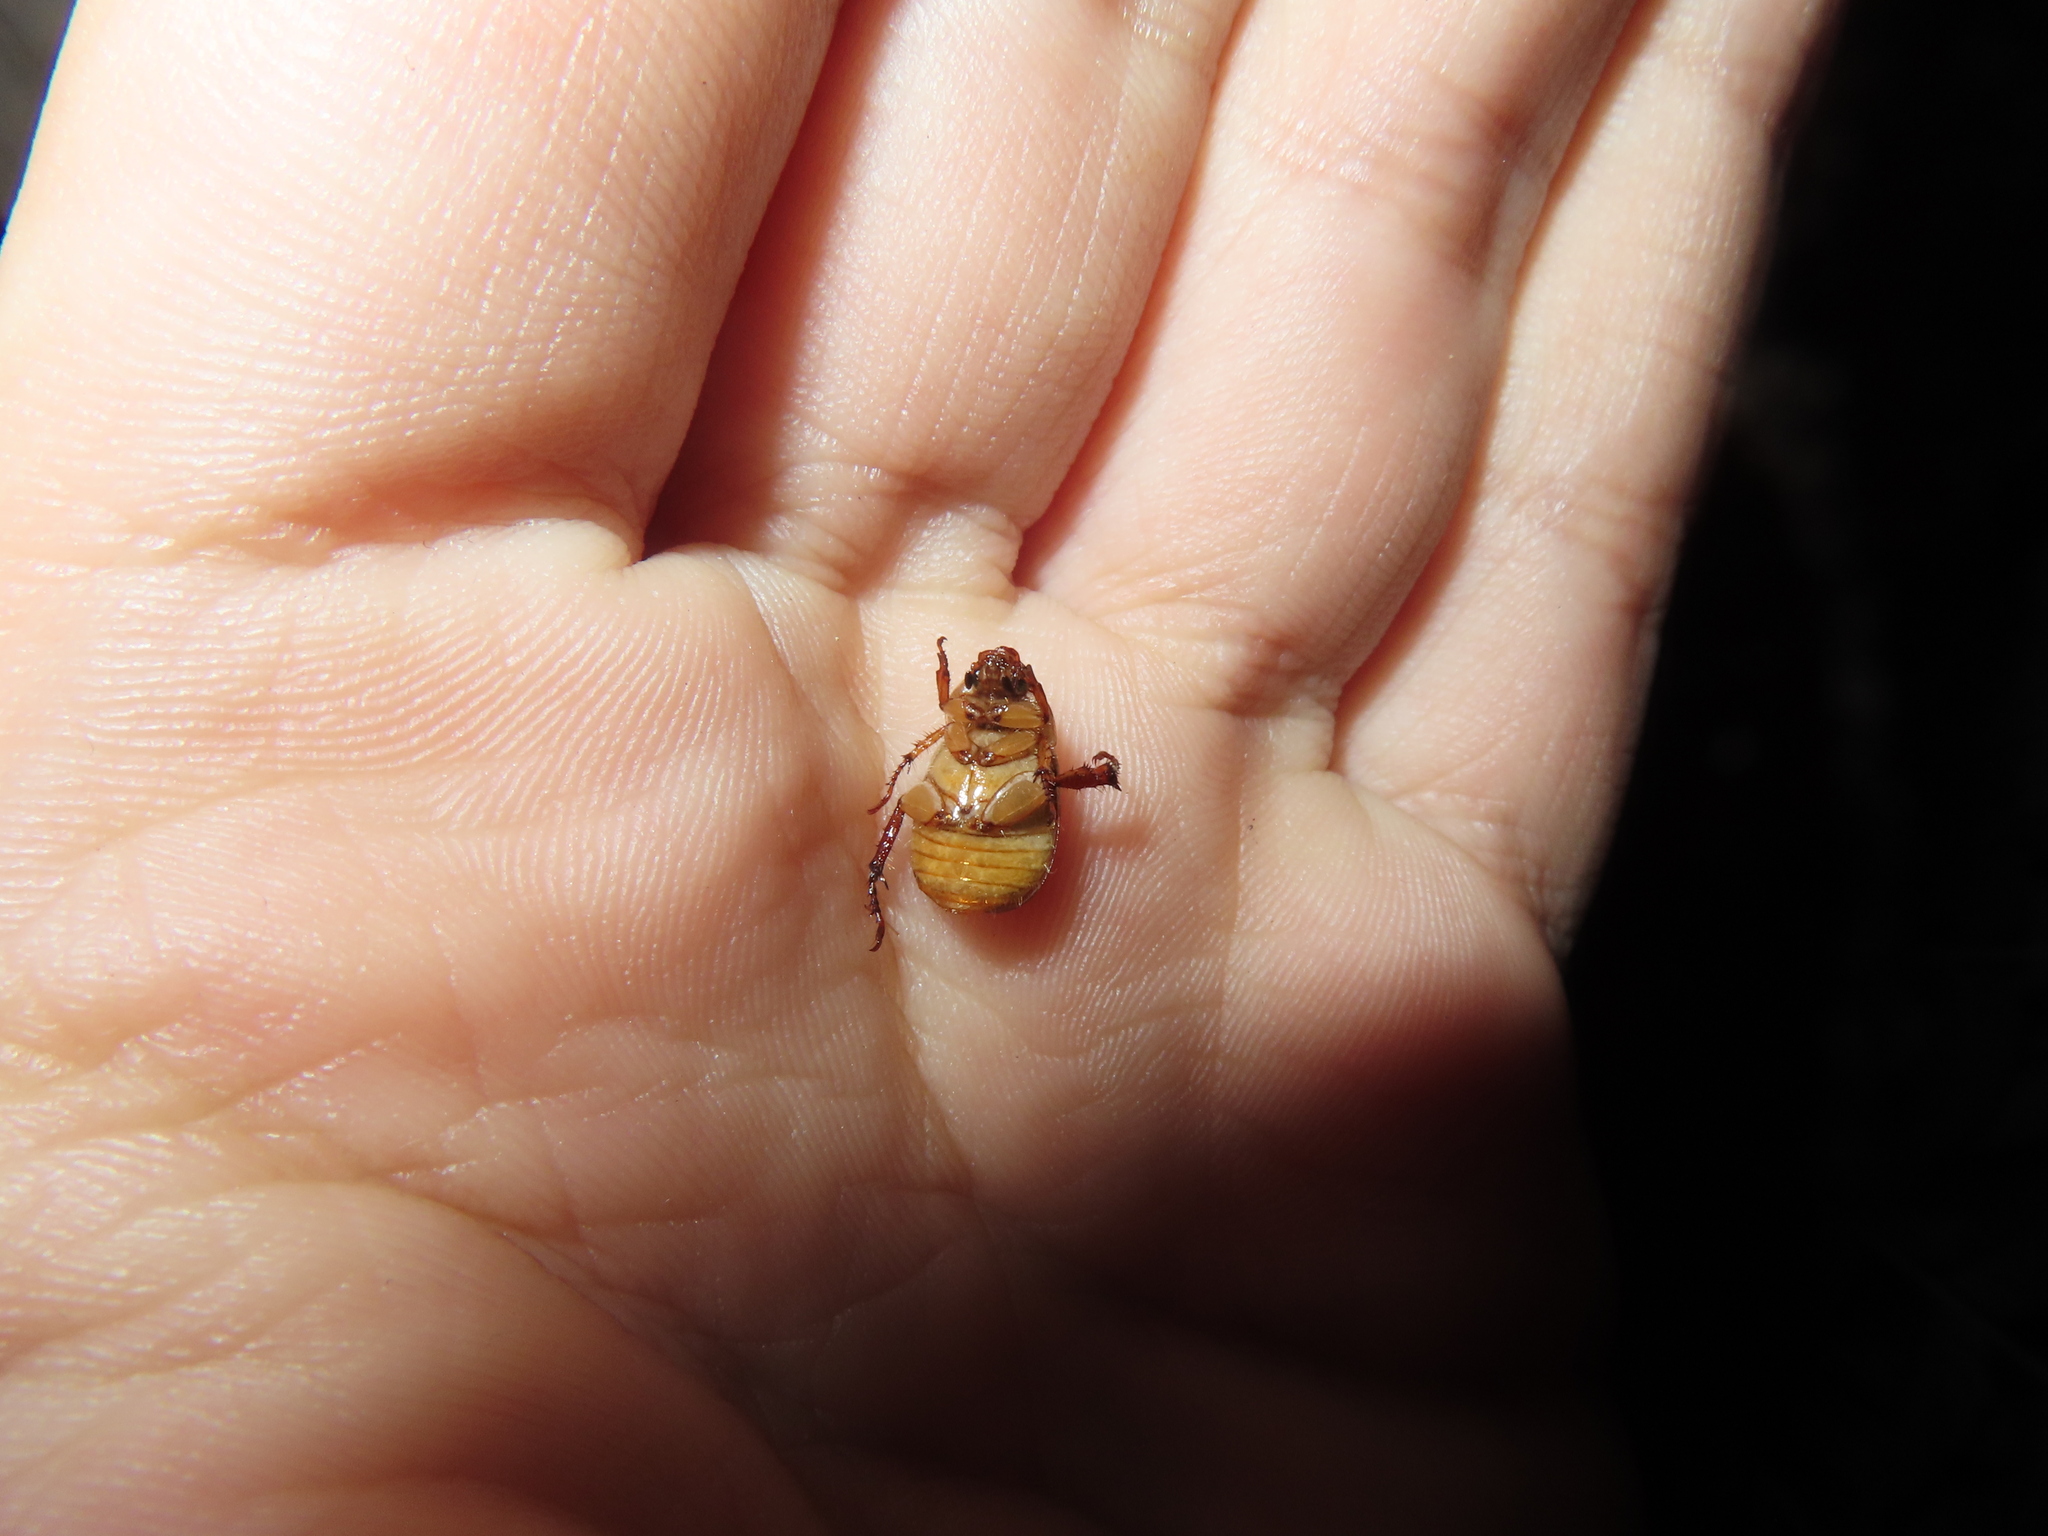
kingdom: Animalia
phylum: Arthropoda
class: Insecta
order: Coleoptera
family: Scarabaeidae
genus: Exomala
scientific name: Exomala orientalis
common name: Oriental beetle
